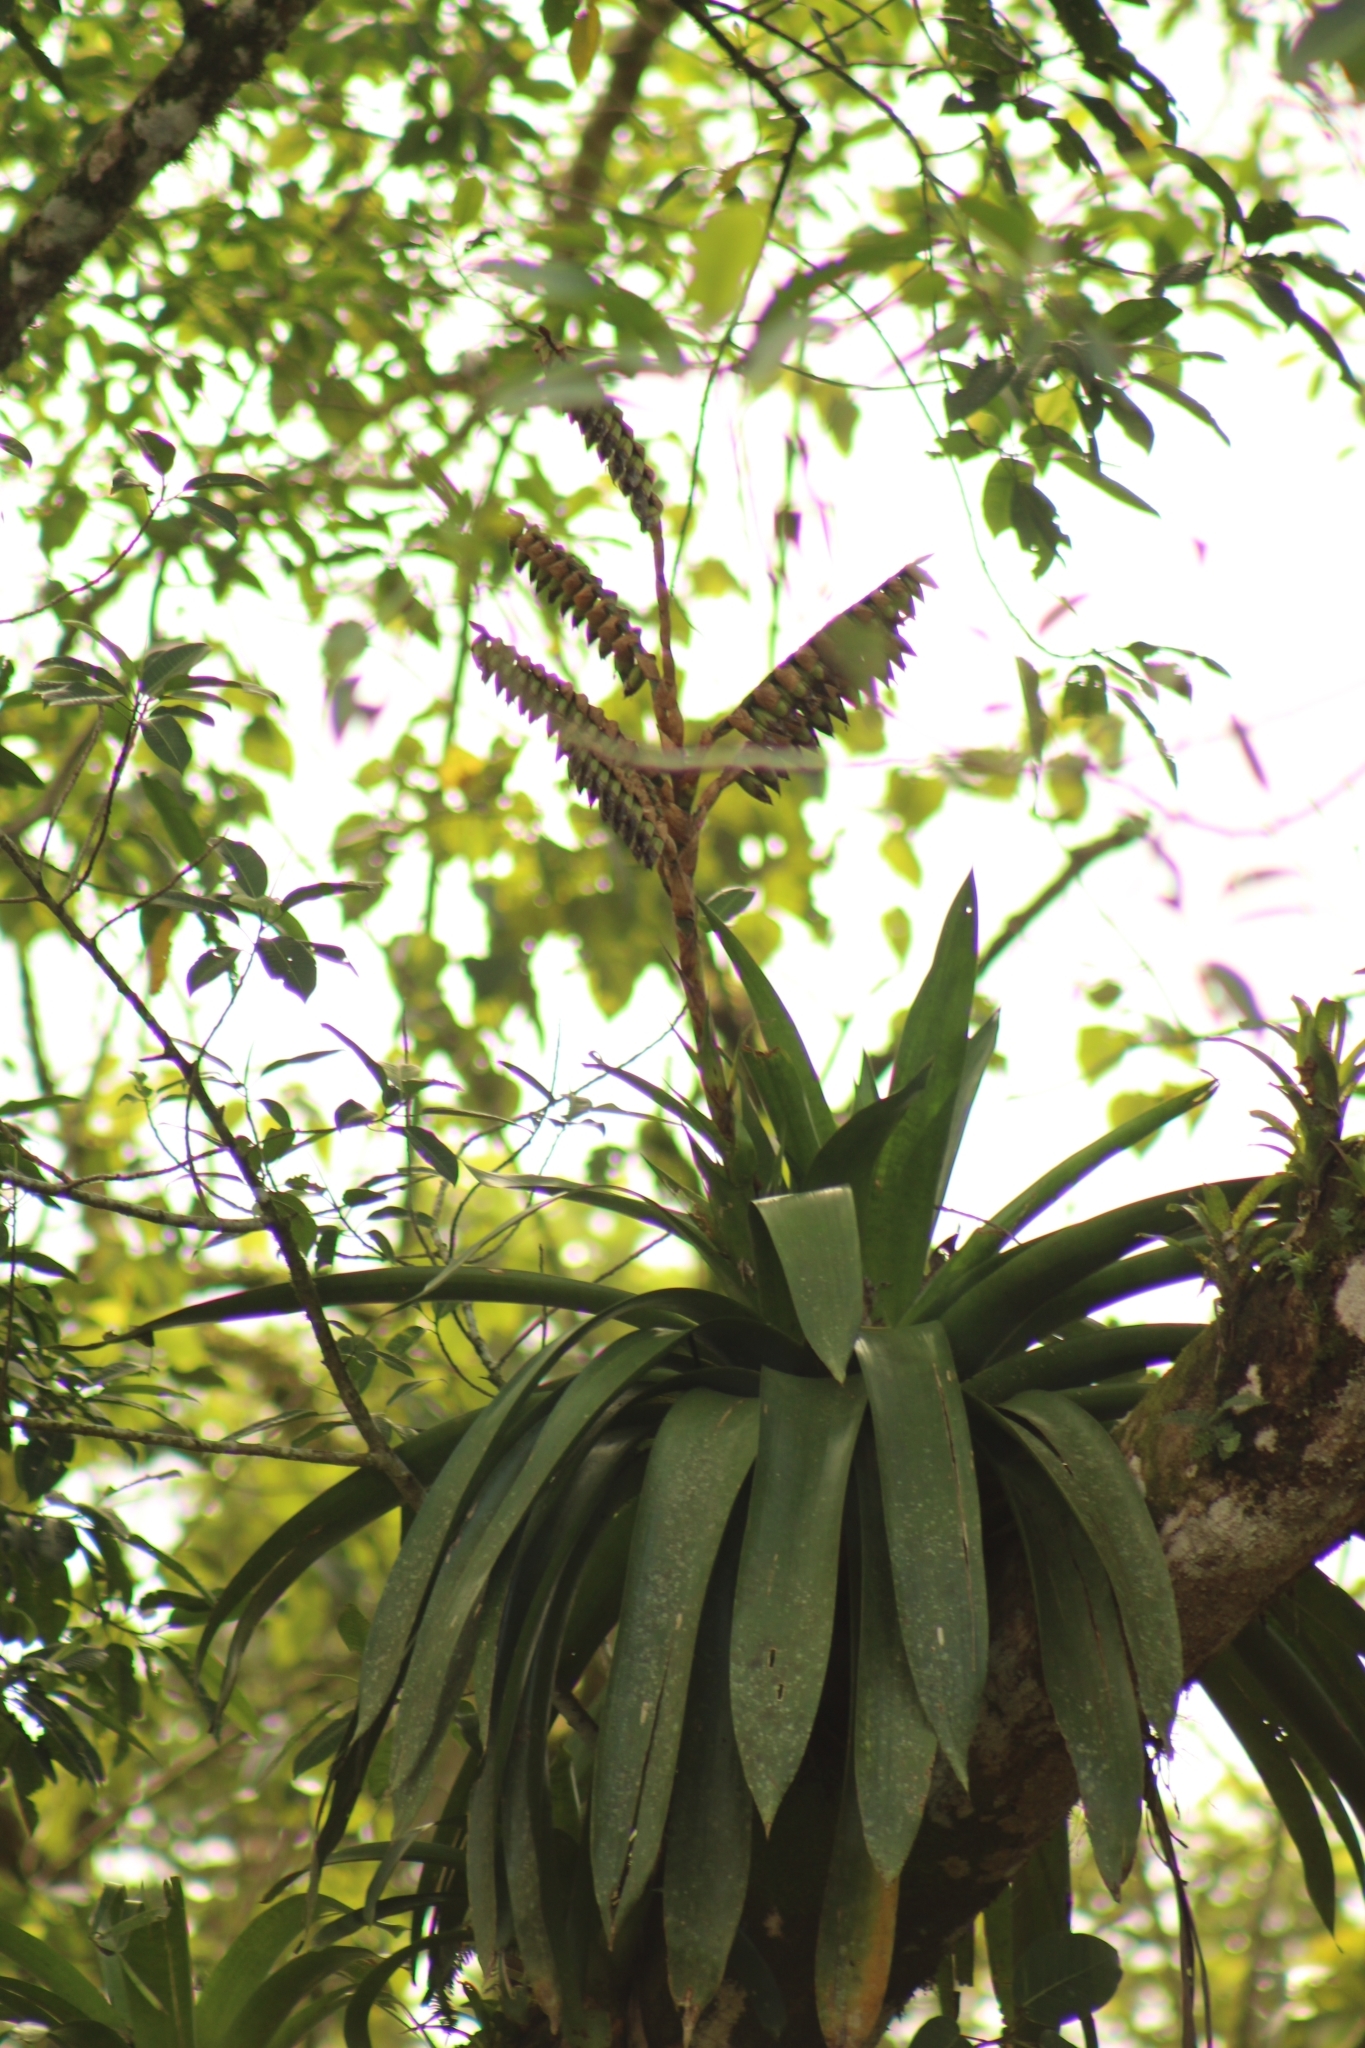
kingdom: Plantae
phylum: Tracheophyta
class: Liliopsida
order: Poales
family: Bromeliaceae
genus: Werauhia
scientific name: Werauhia sanguinolenta
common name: Bromeliad
